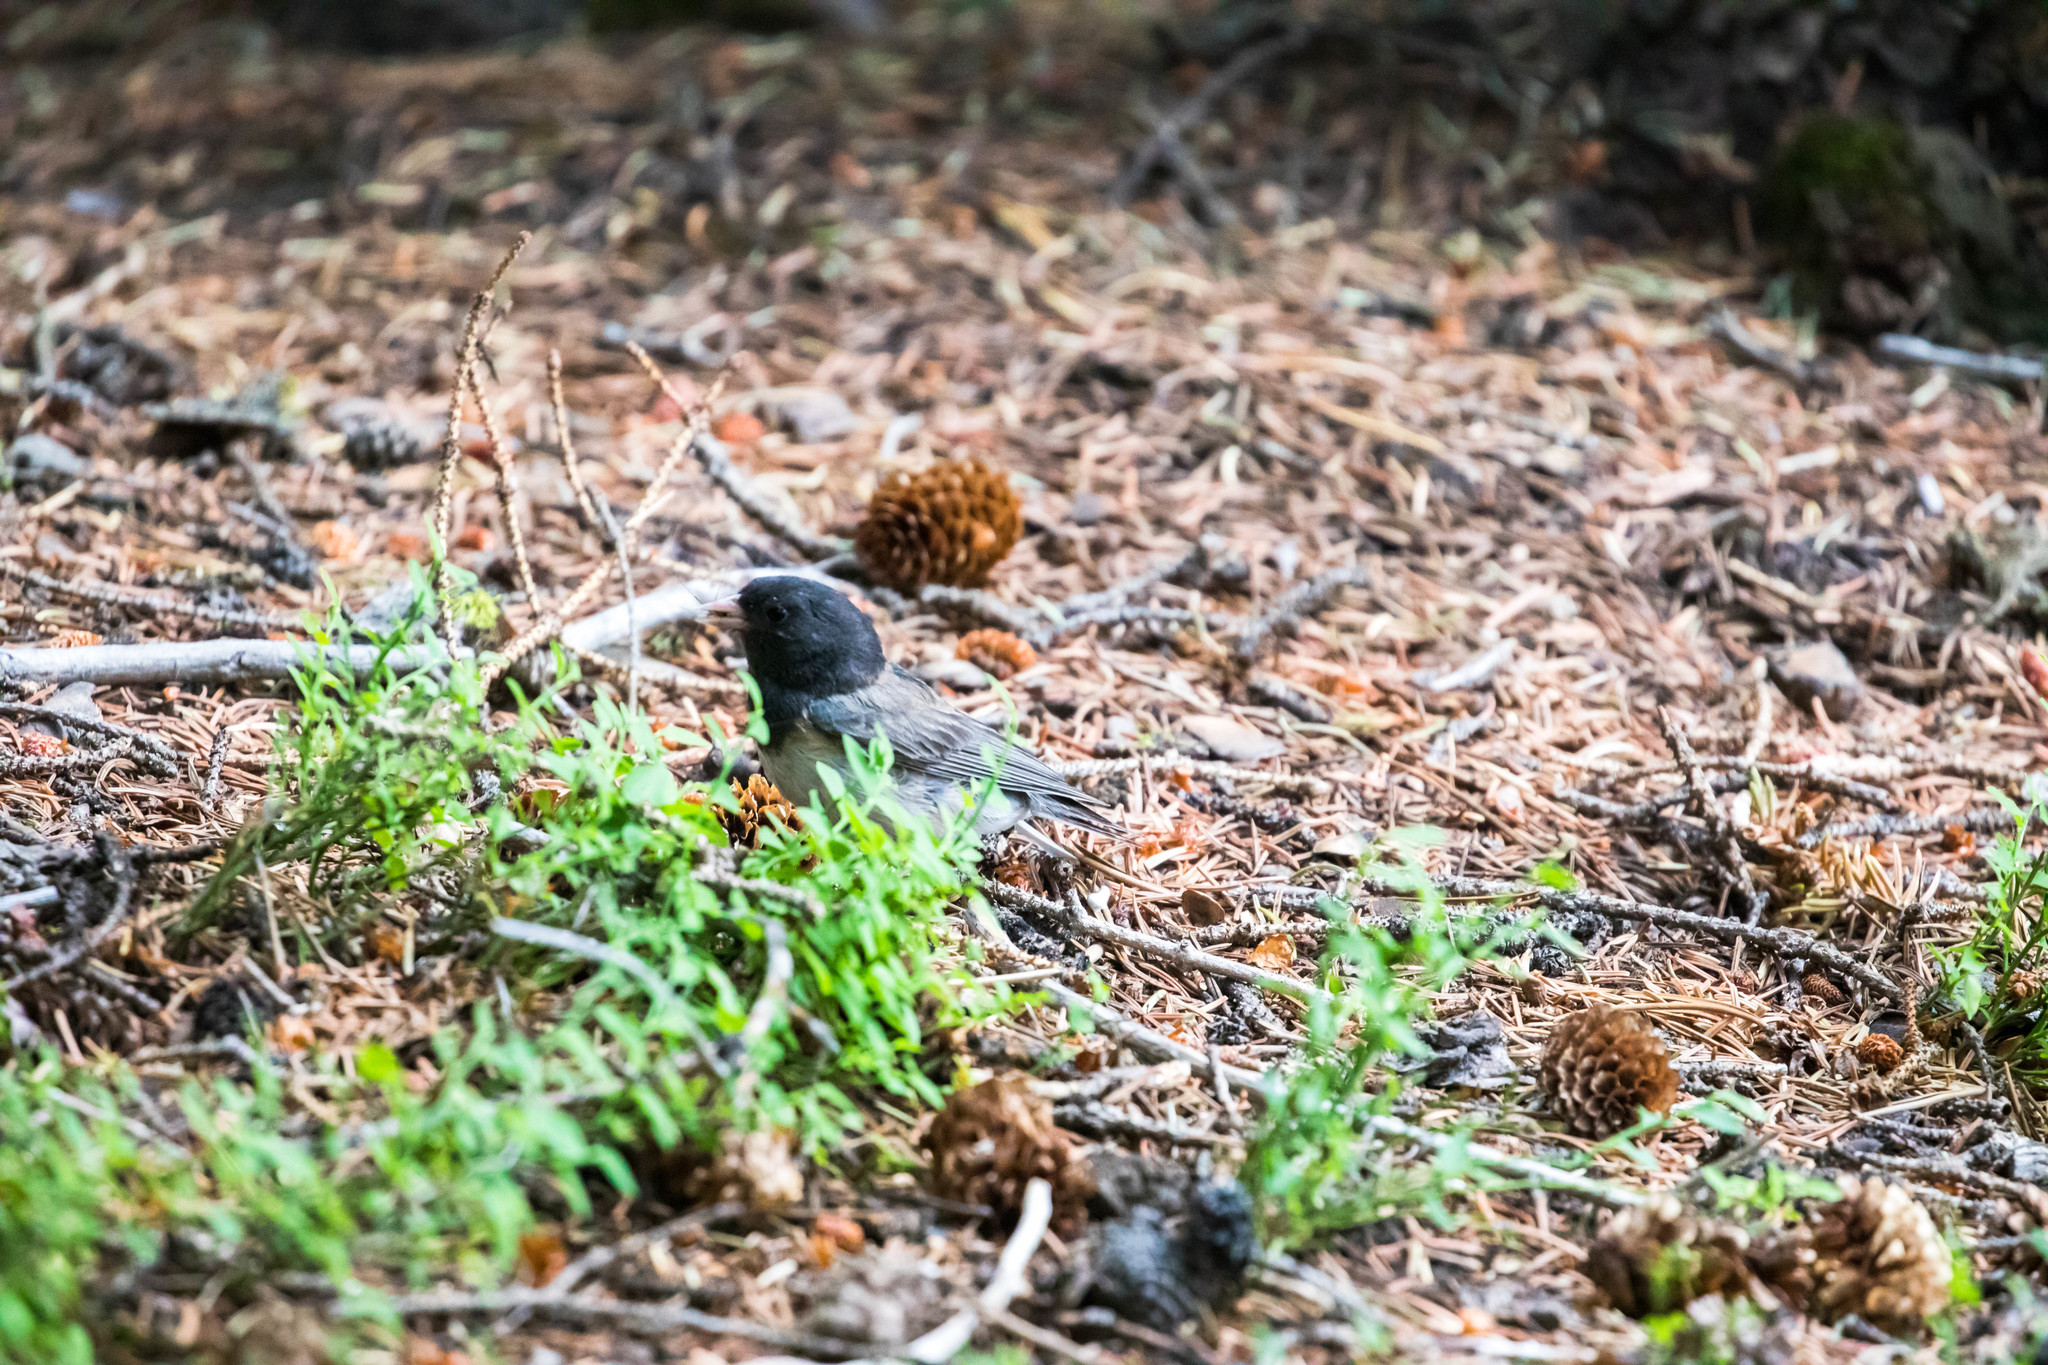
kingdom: Animalia
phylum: Chordata
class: Aves
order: Passeriformes
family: Passerellidae
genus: Junco
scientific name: Junco hyemalis
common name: Dark-eyed junco
